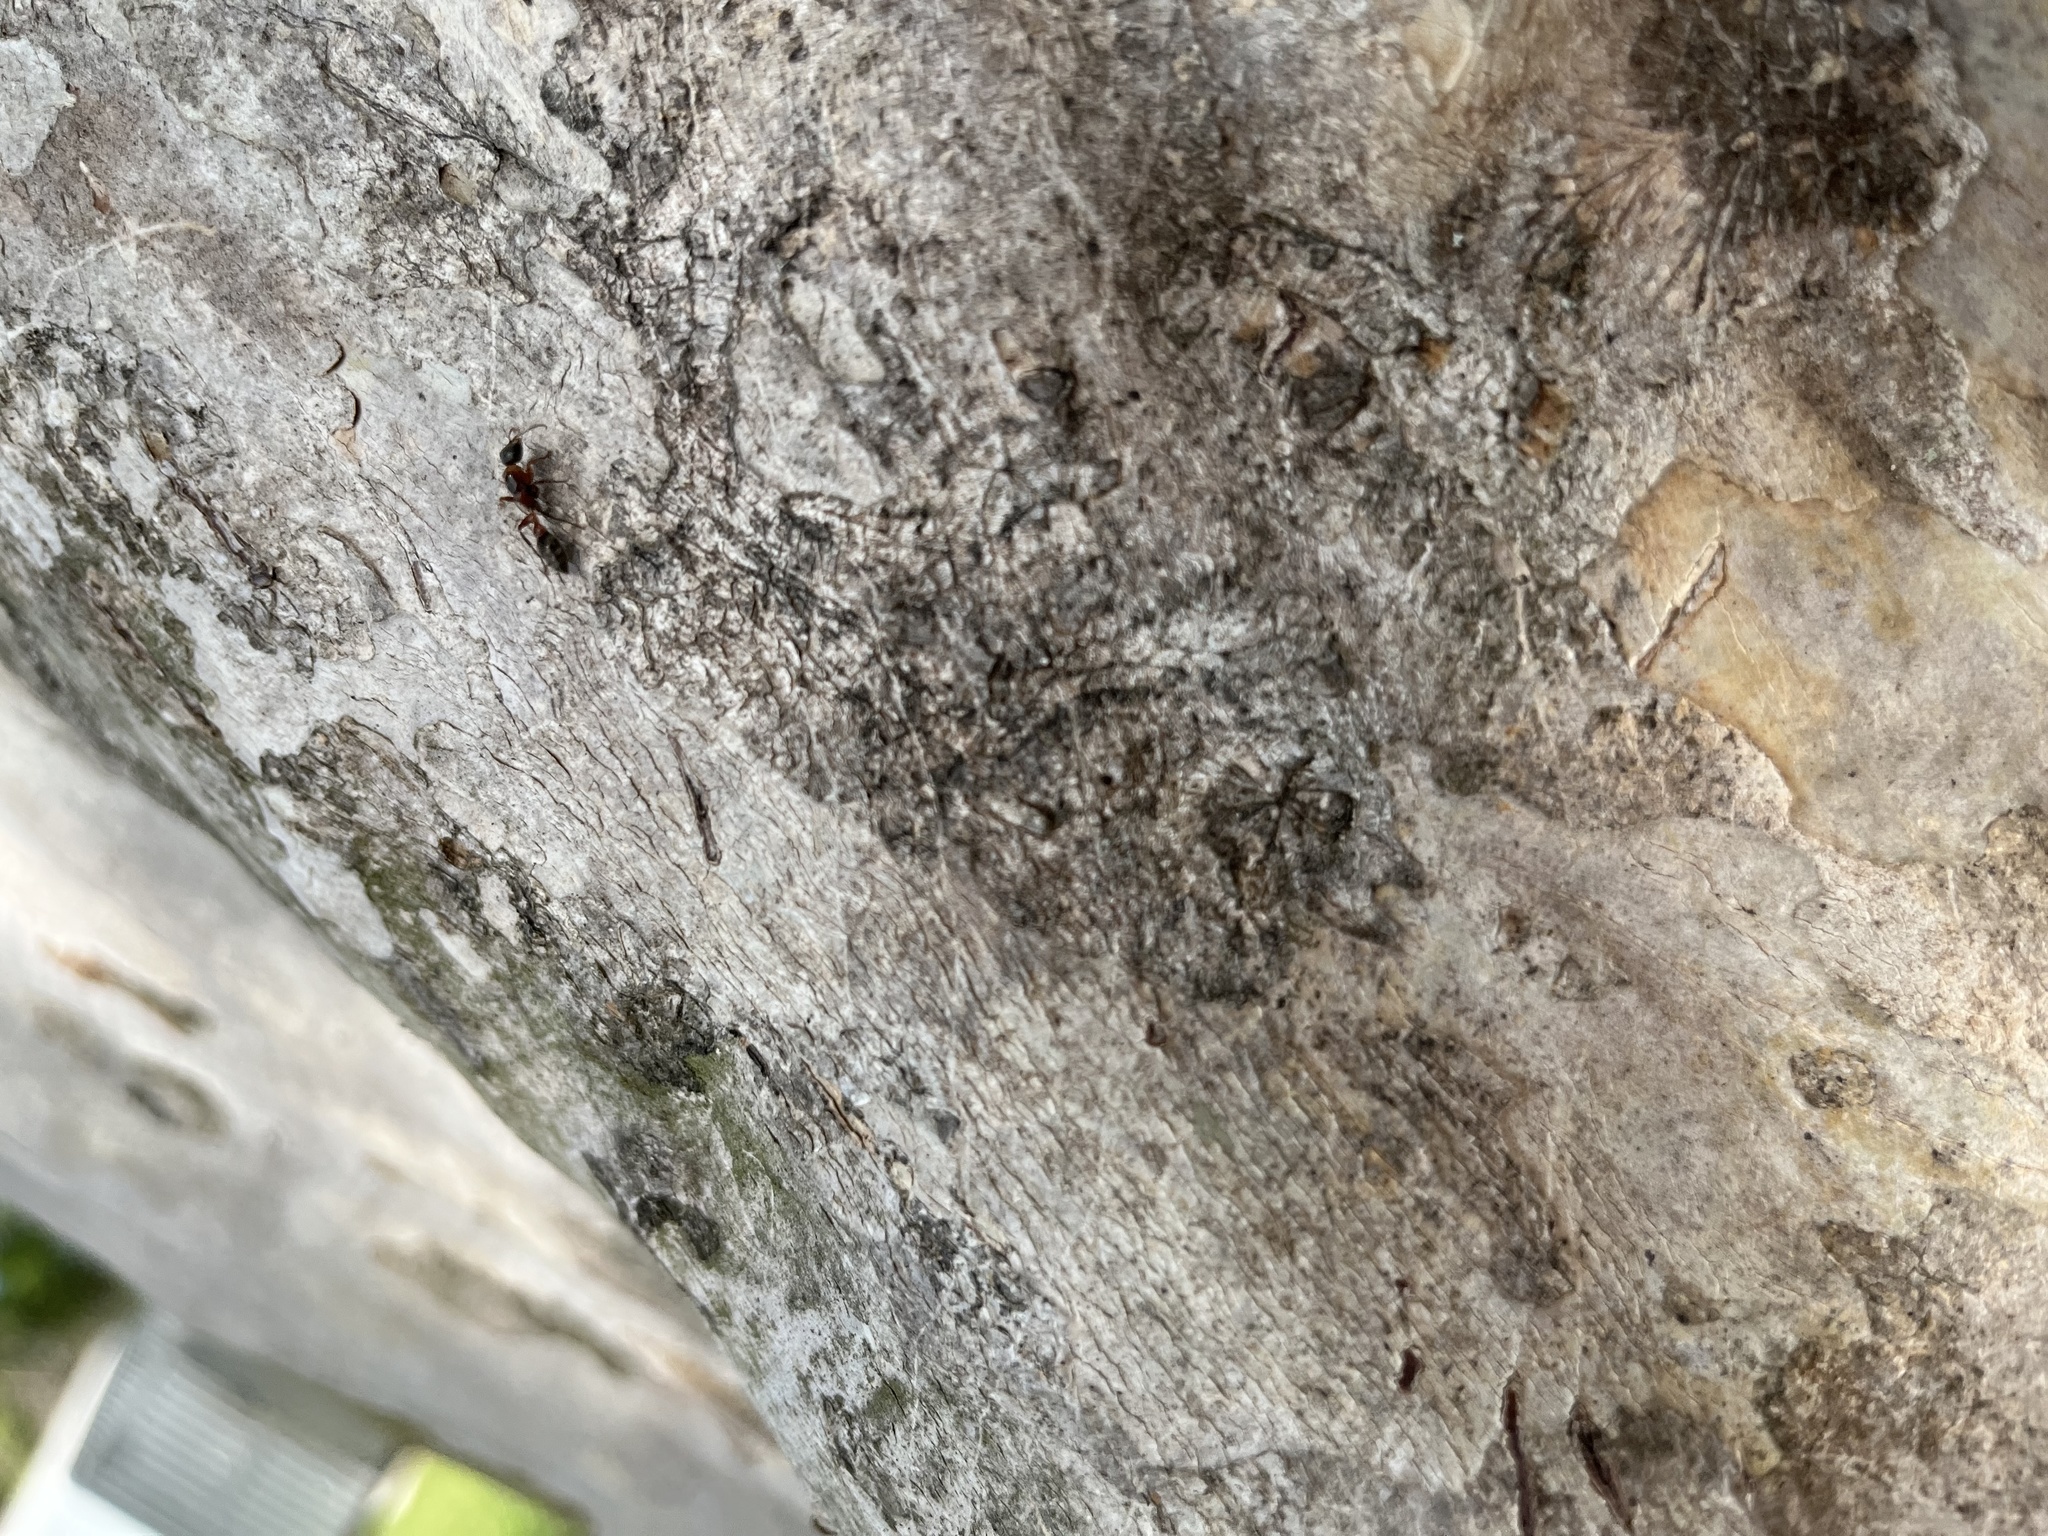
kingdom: Animalia
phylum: Arthropoda
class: Insecta
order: Hymenoptera
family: Formicidae
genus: Pseudomyrmex
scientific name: Pseudomyrmex gracilis
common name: Graceful twig ant
